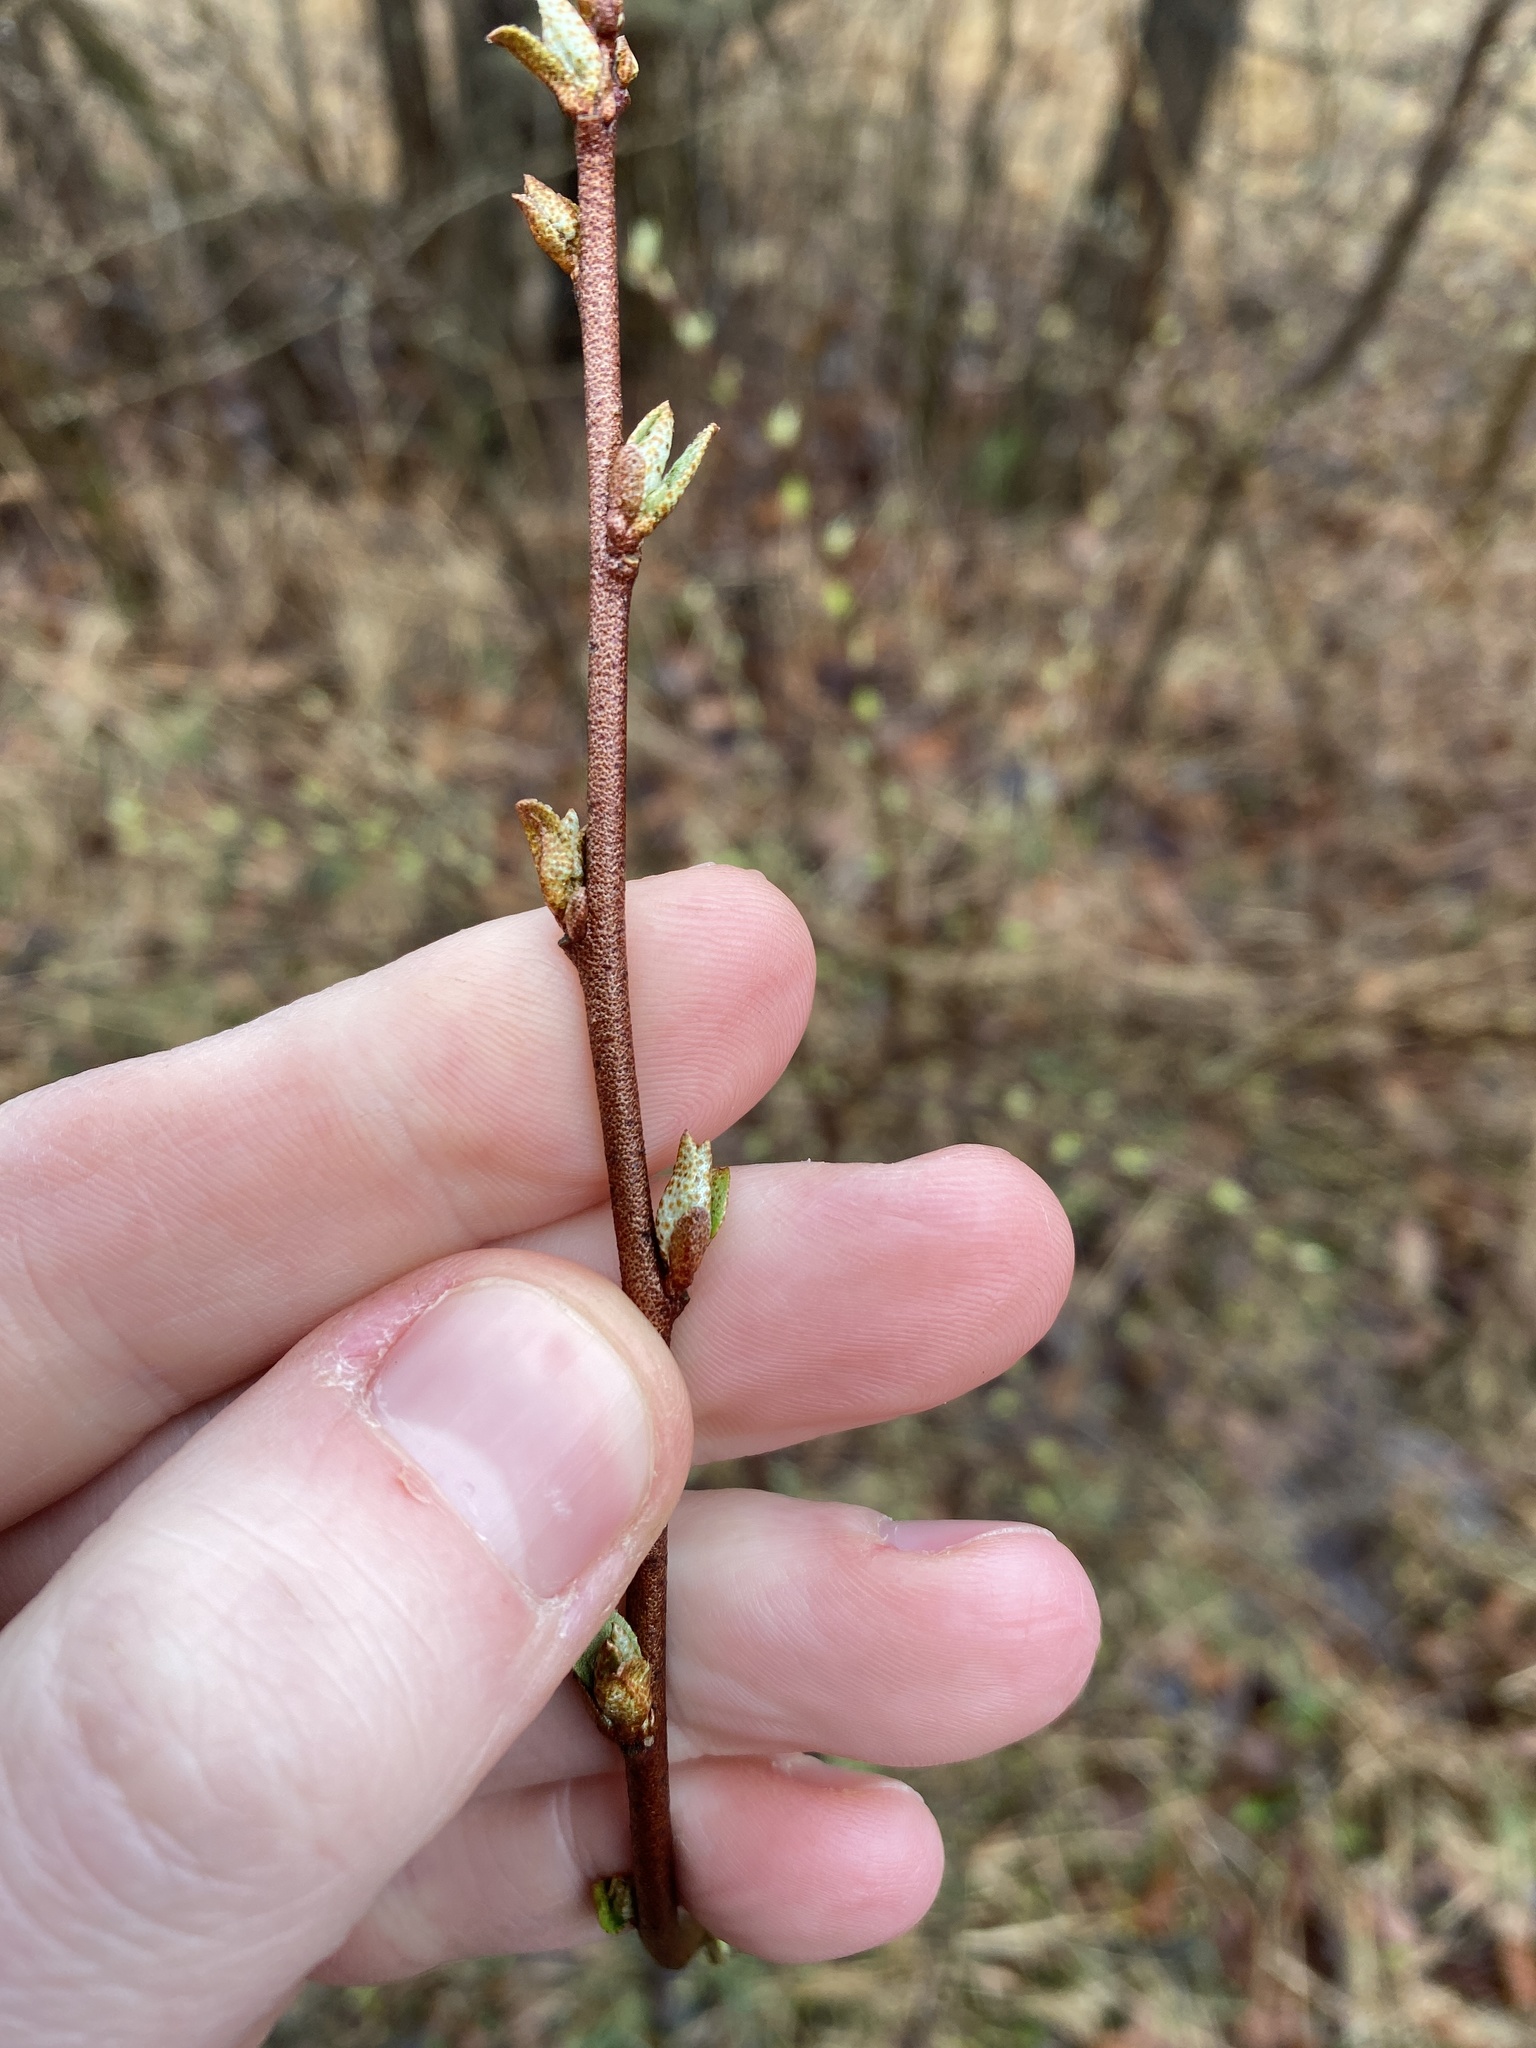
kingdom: Plantae
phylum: Tracheophyta
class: Magnoliopsida
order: Rosales
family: Elaeagnaceae
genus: Elaeagnus
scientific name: Elaeagnus umbellata
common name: Autumn olive
